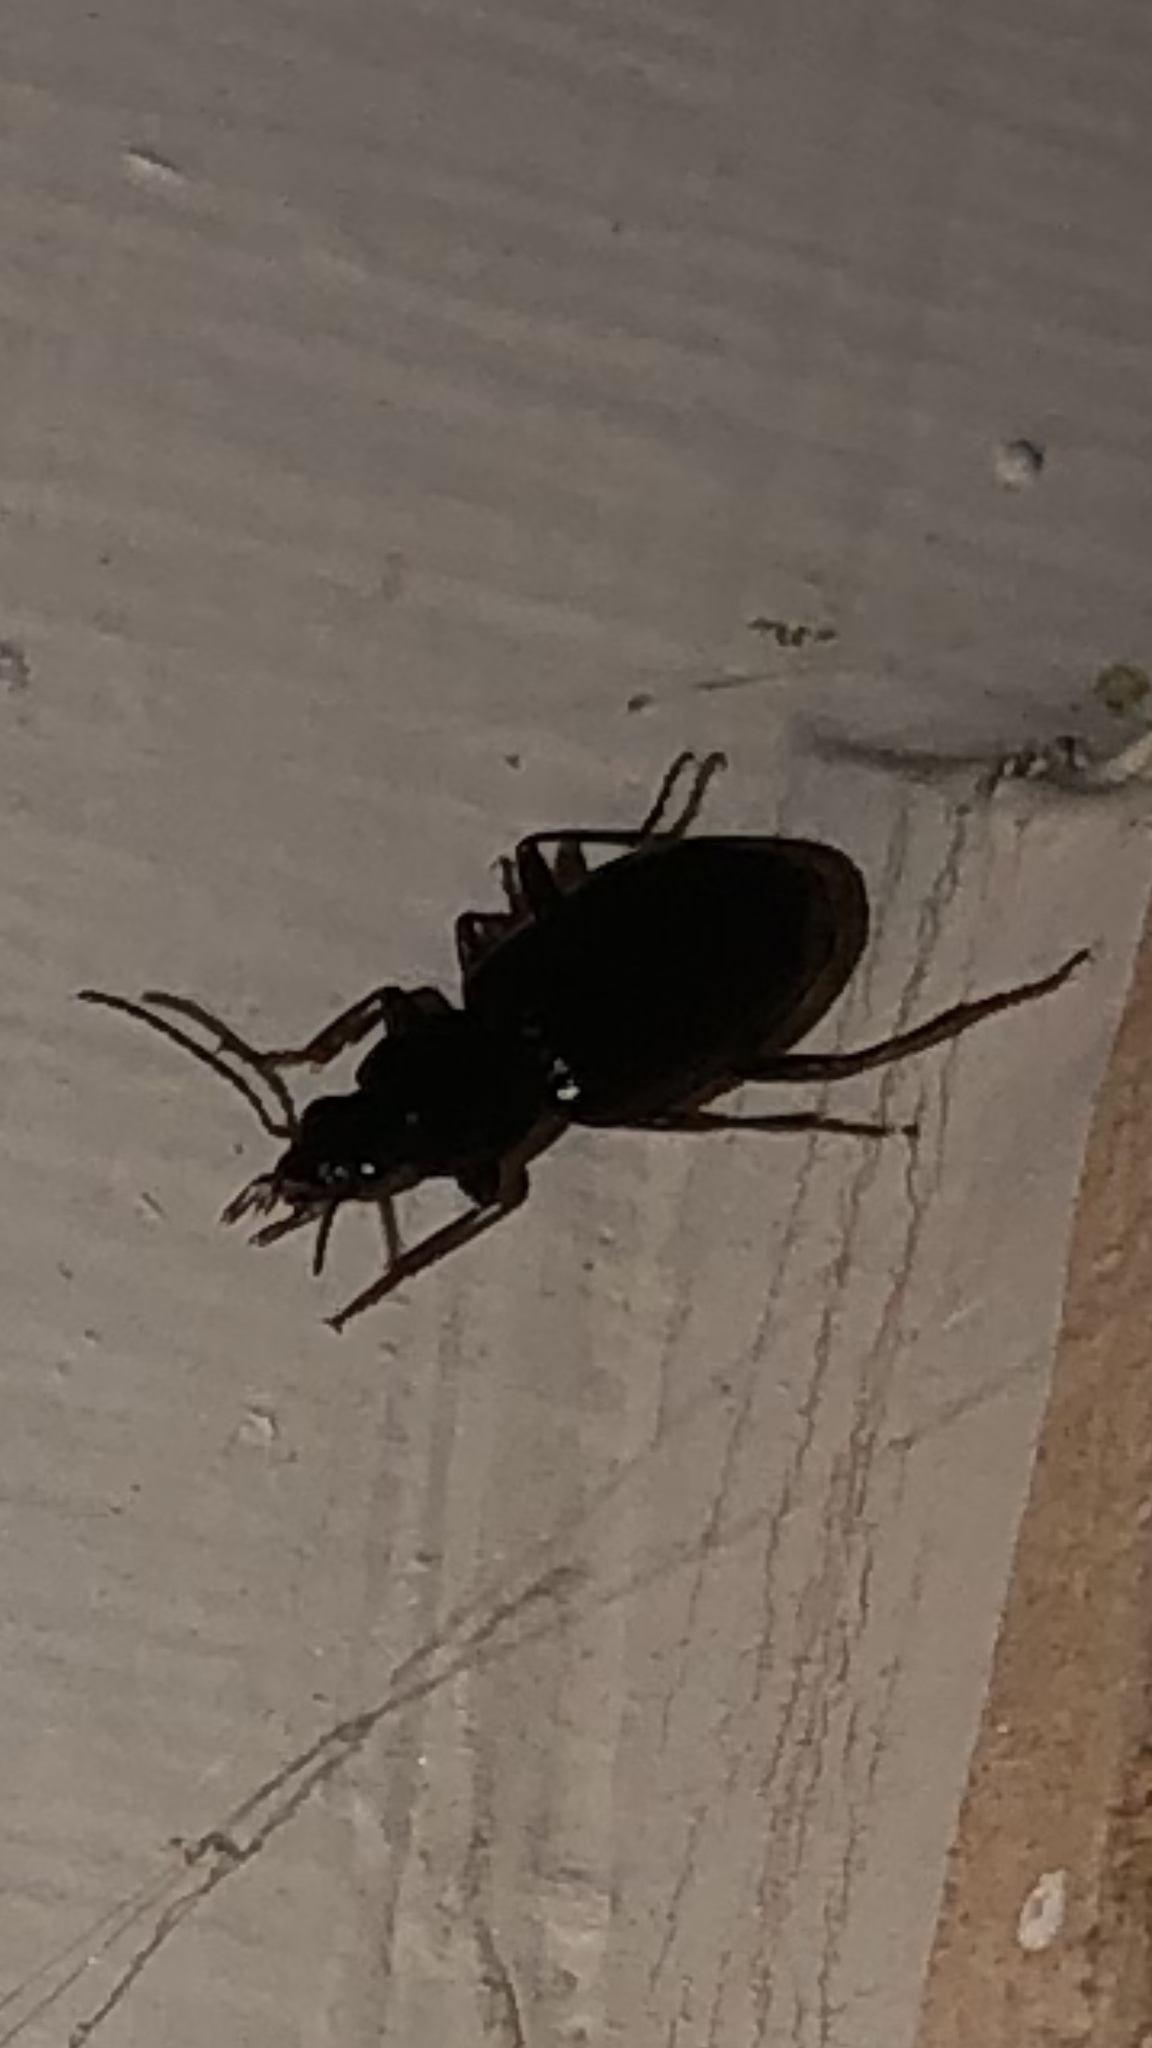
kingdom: Animalia
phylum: Arthropoda
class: Insecta
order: Coleoptera
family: Carabidae
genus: Agonum
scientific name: Agonum punctiforme
